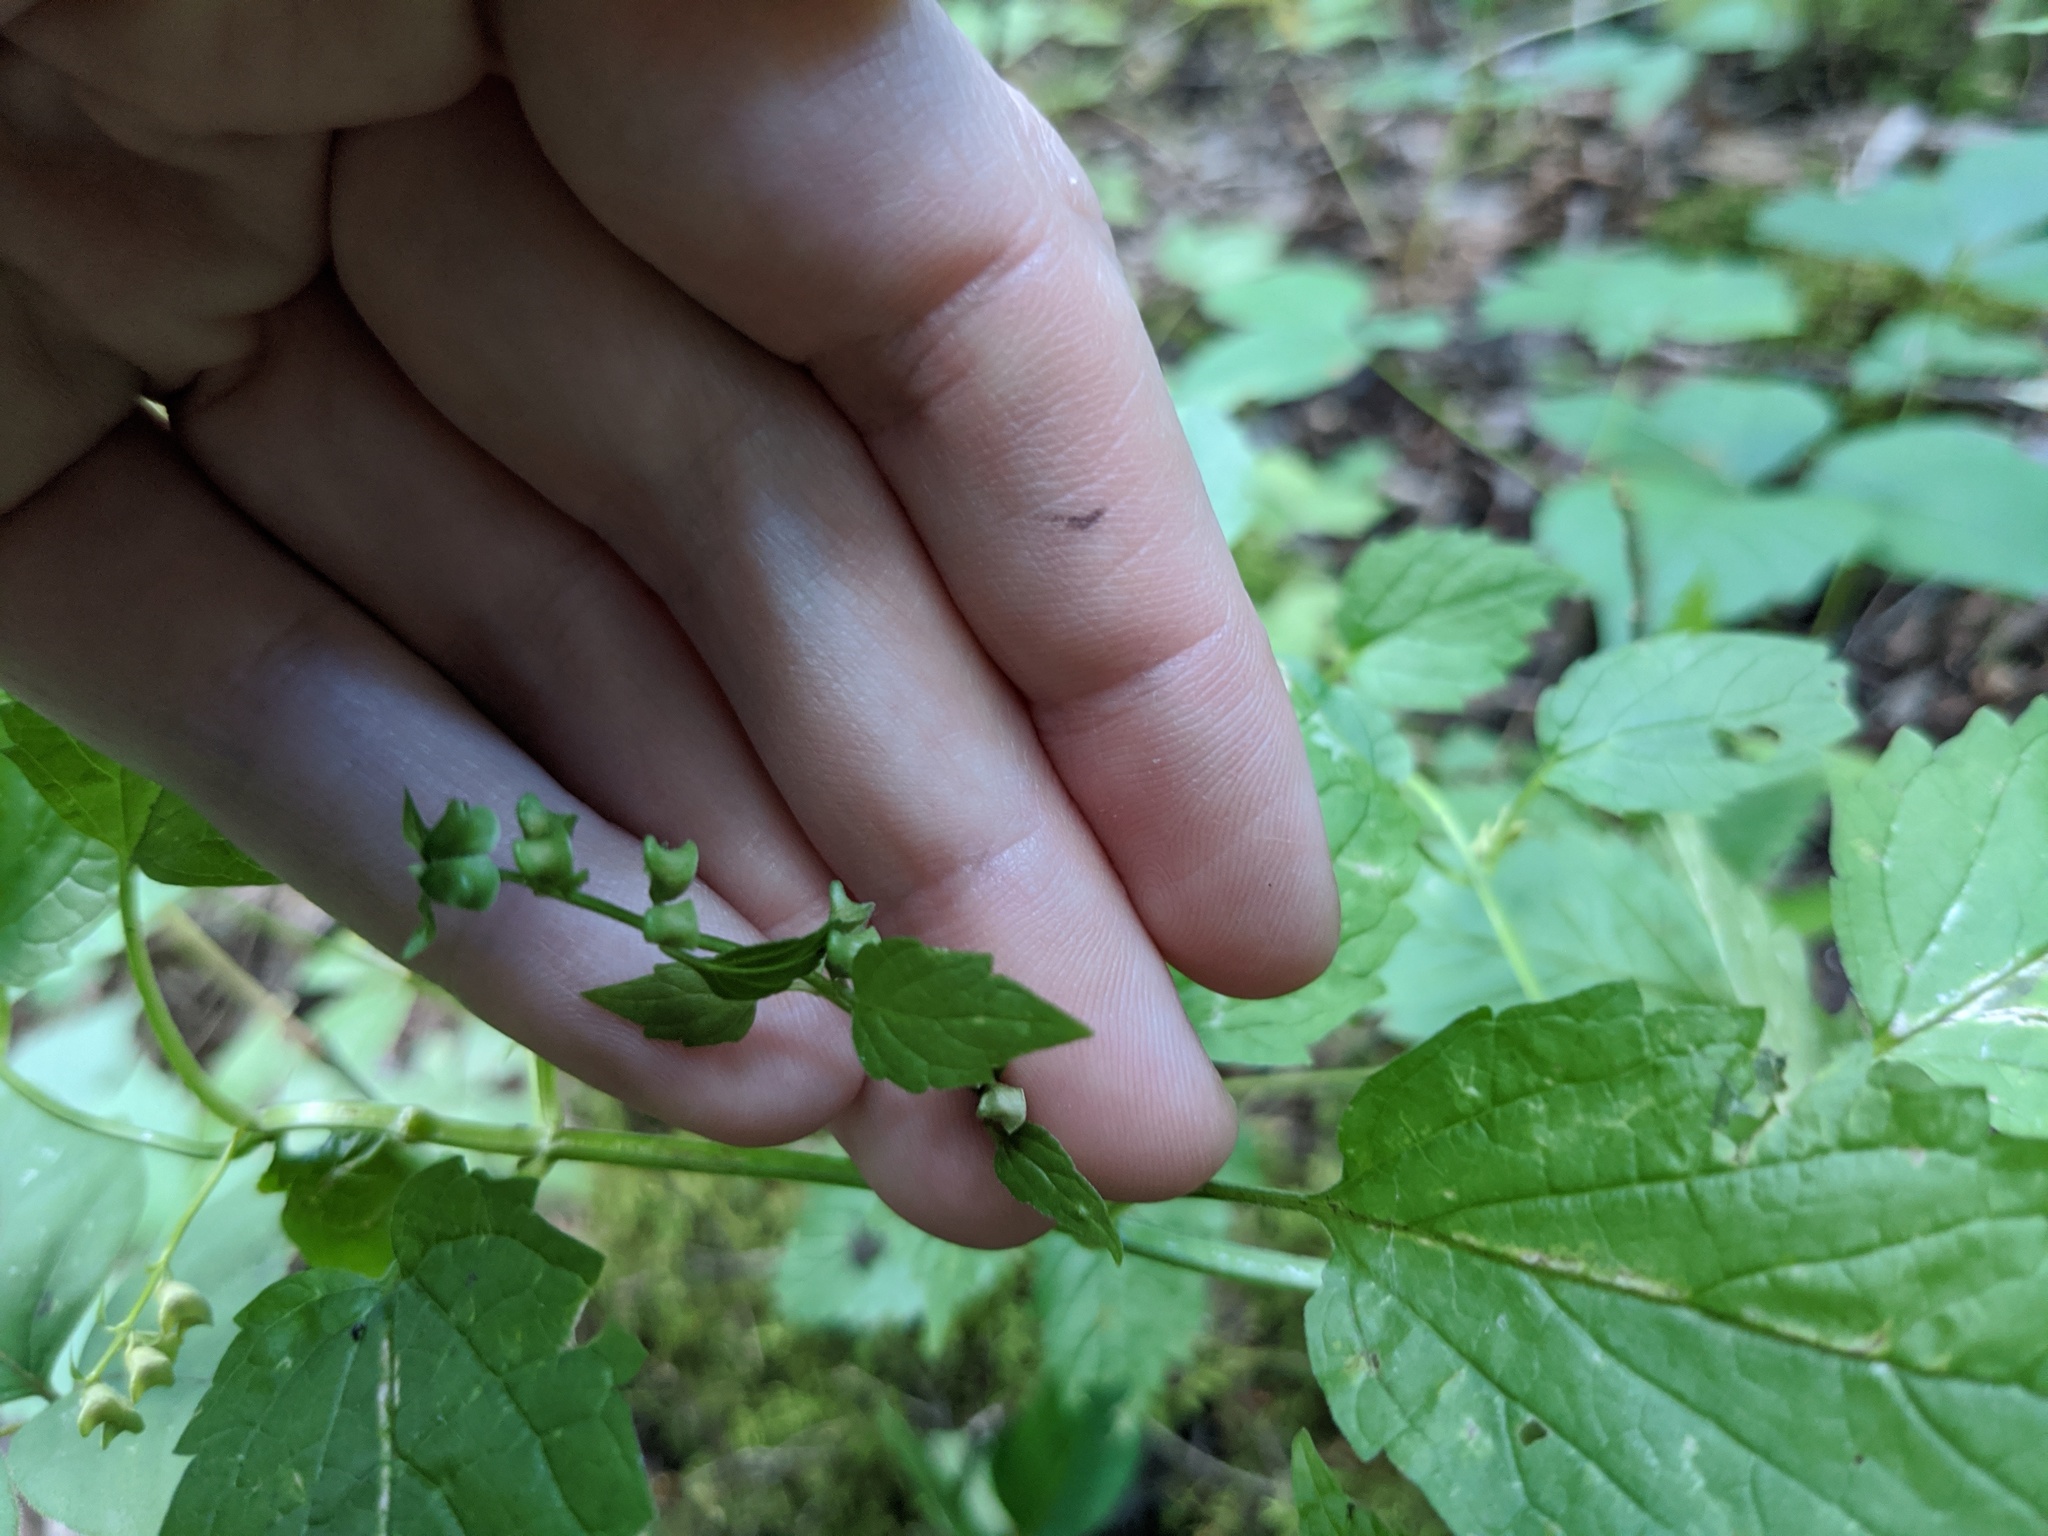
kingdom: Plantae
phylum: Tracheophyta
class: Magnoliopsida
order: Lamiales
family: Lamiaceae
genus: Scutellaria
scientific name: Scutellaria lateriflora
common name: Blue skullcap
